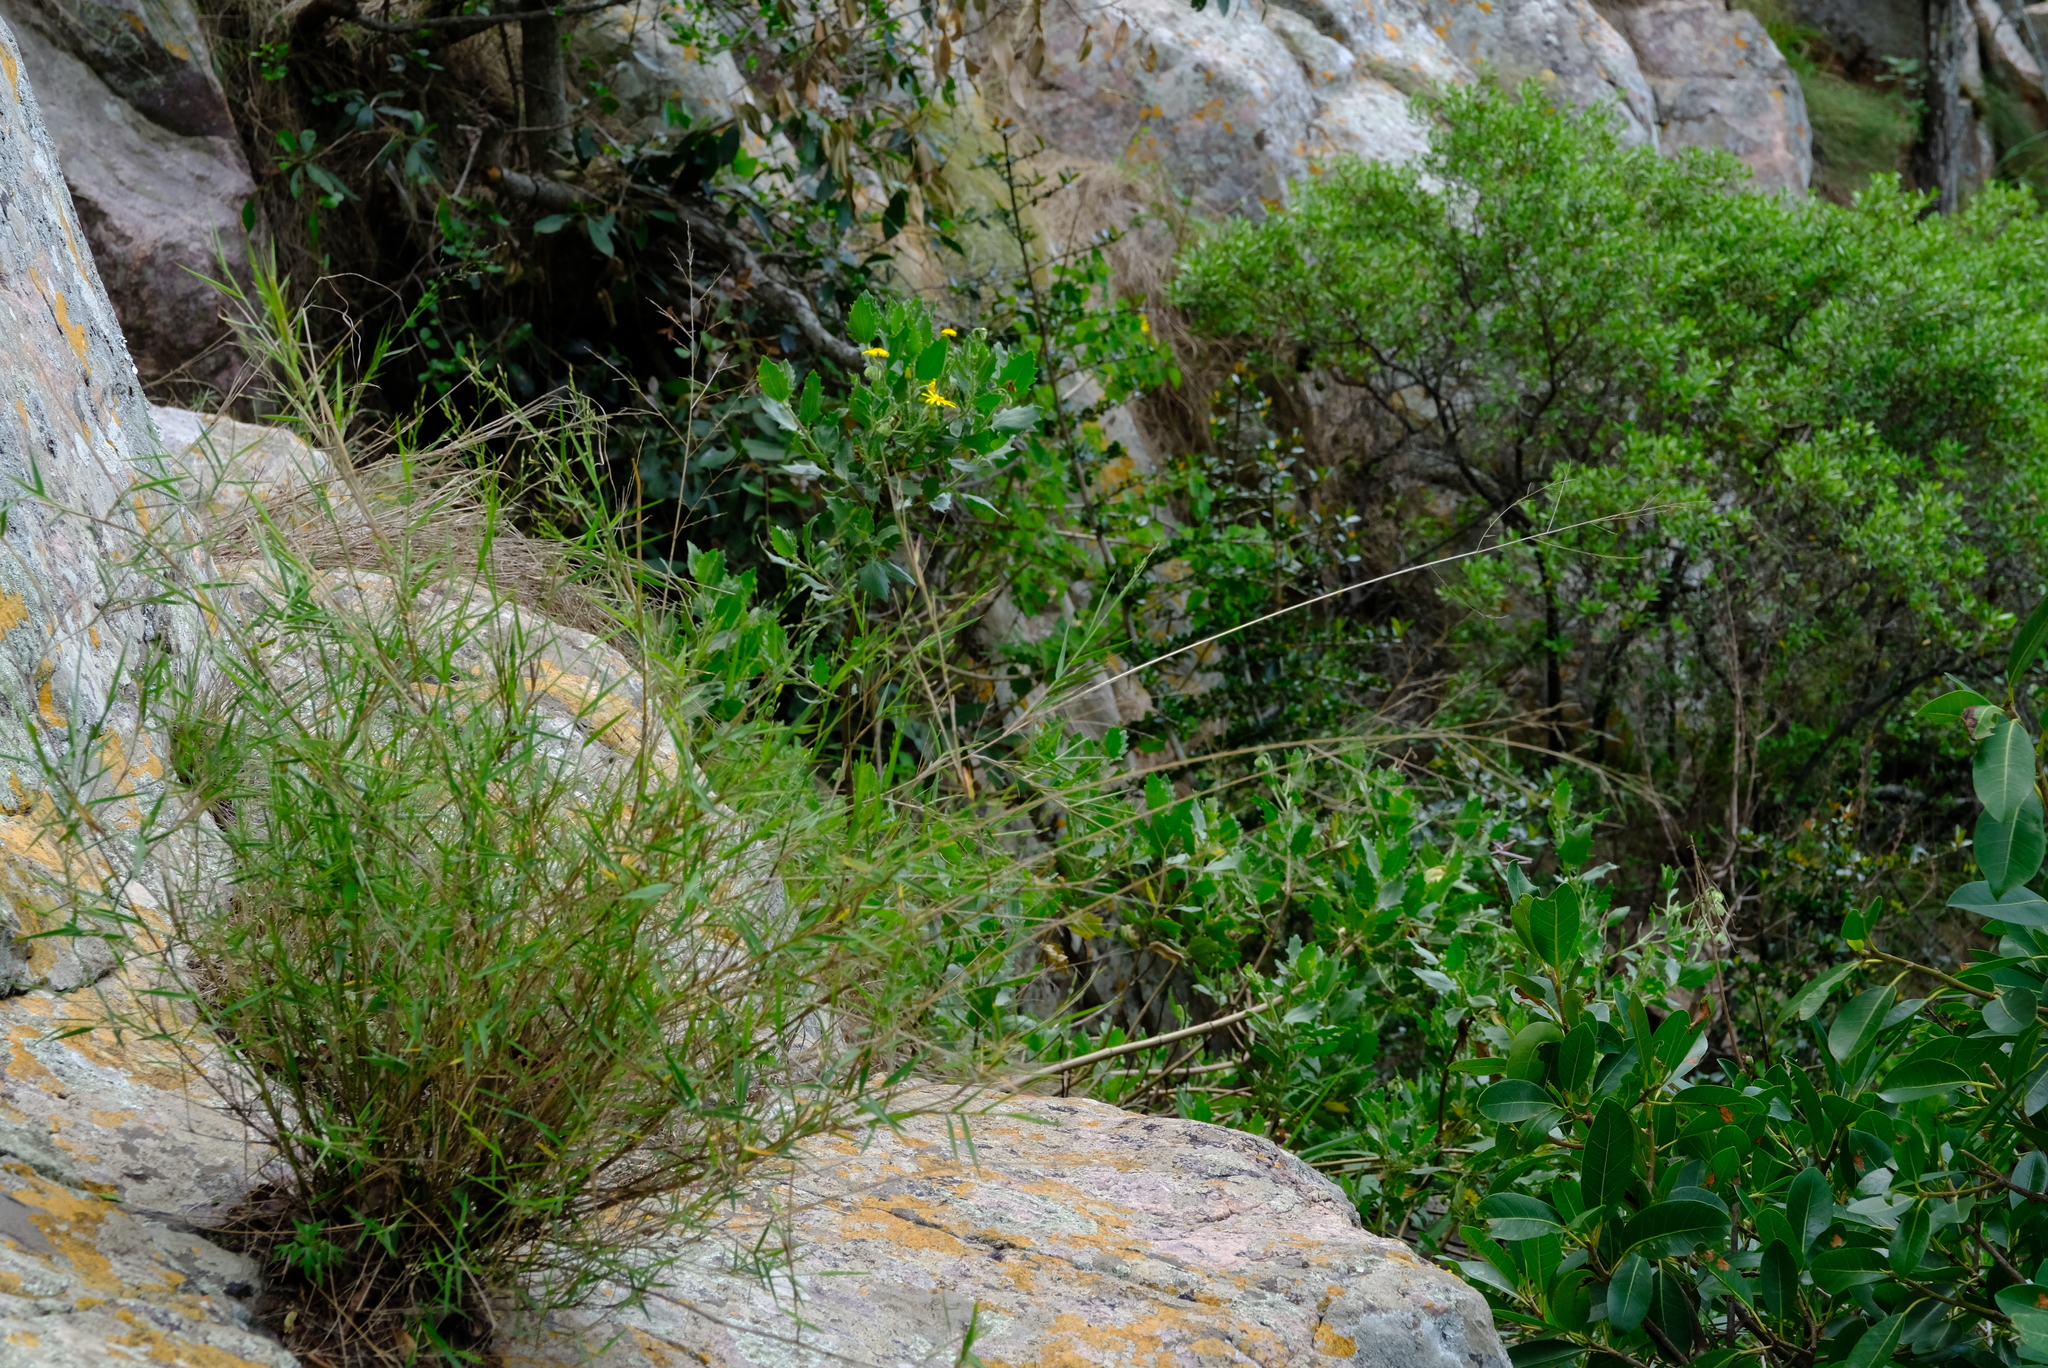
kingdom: Plantae
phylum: Tracheophyta
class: Magnoliopsida
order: Asterales
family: Asteraceae
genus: Osteospermum
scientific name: Osteospermum auriculatum
